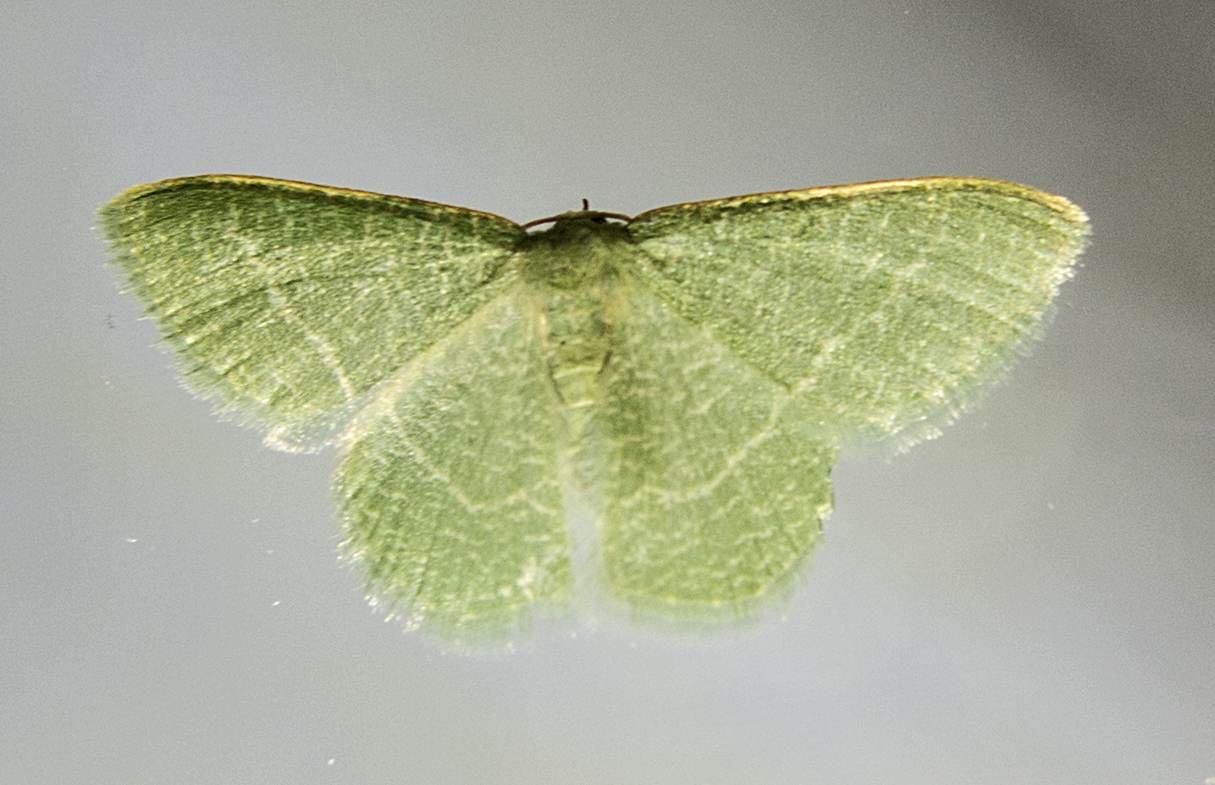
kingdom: Animalia
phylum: Arthropoda
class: Insecta
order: Lepidoptera
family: Geometridae
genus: Chlorissa
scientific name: Chlorissa etruscaria
